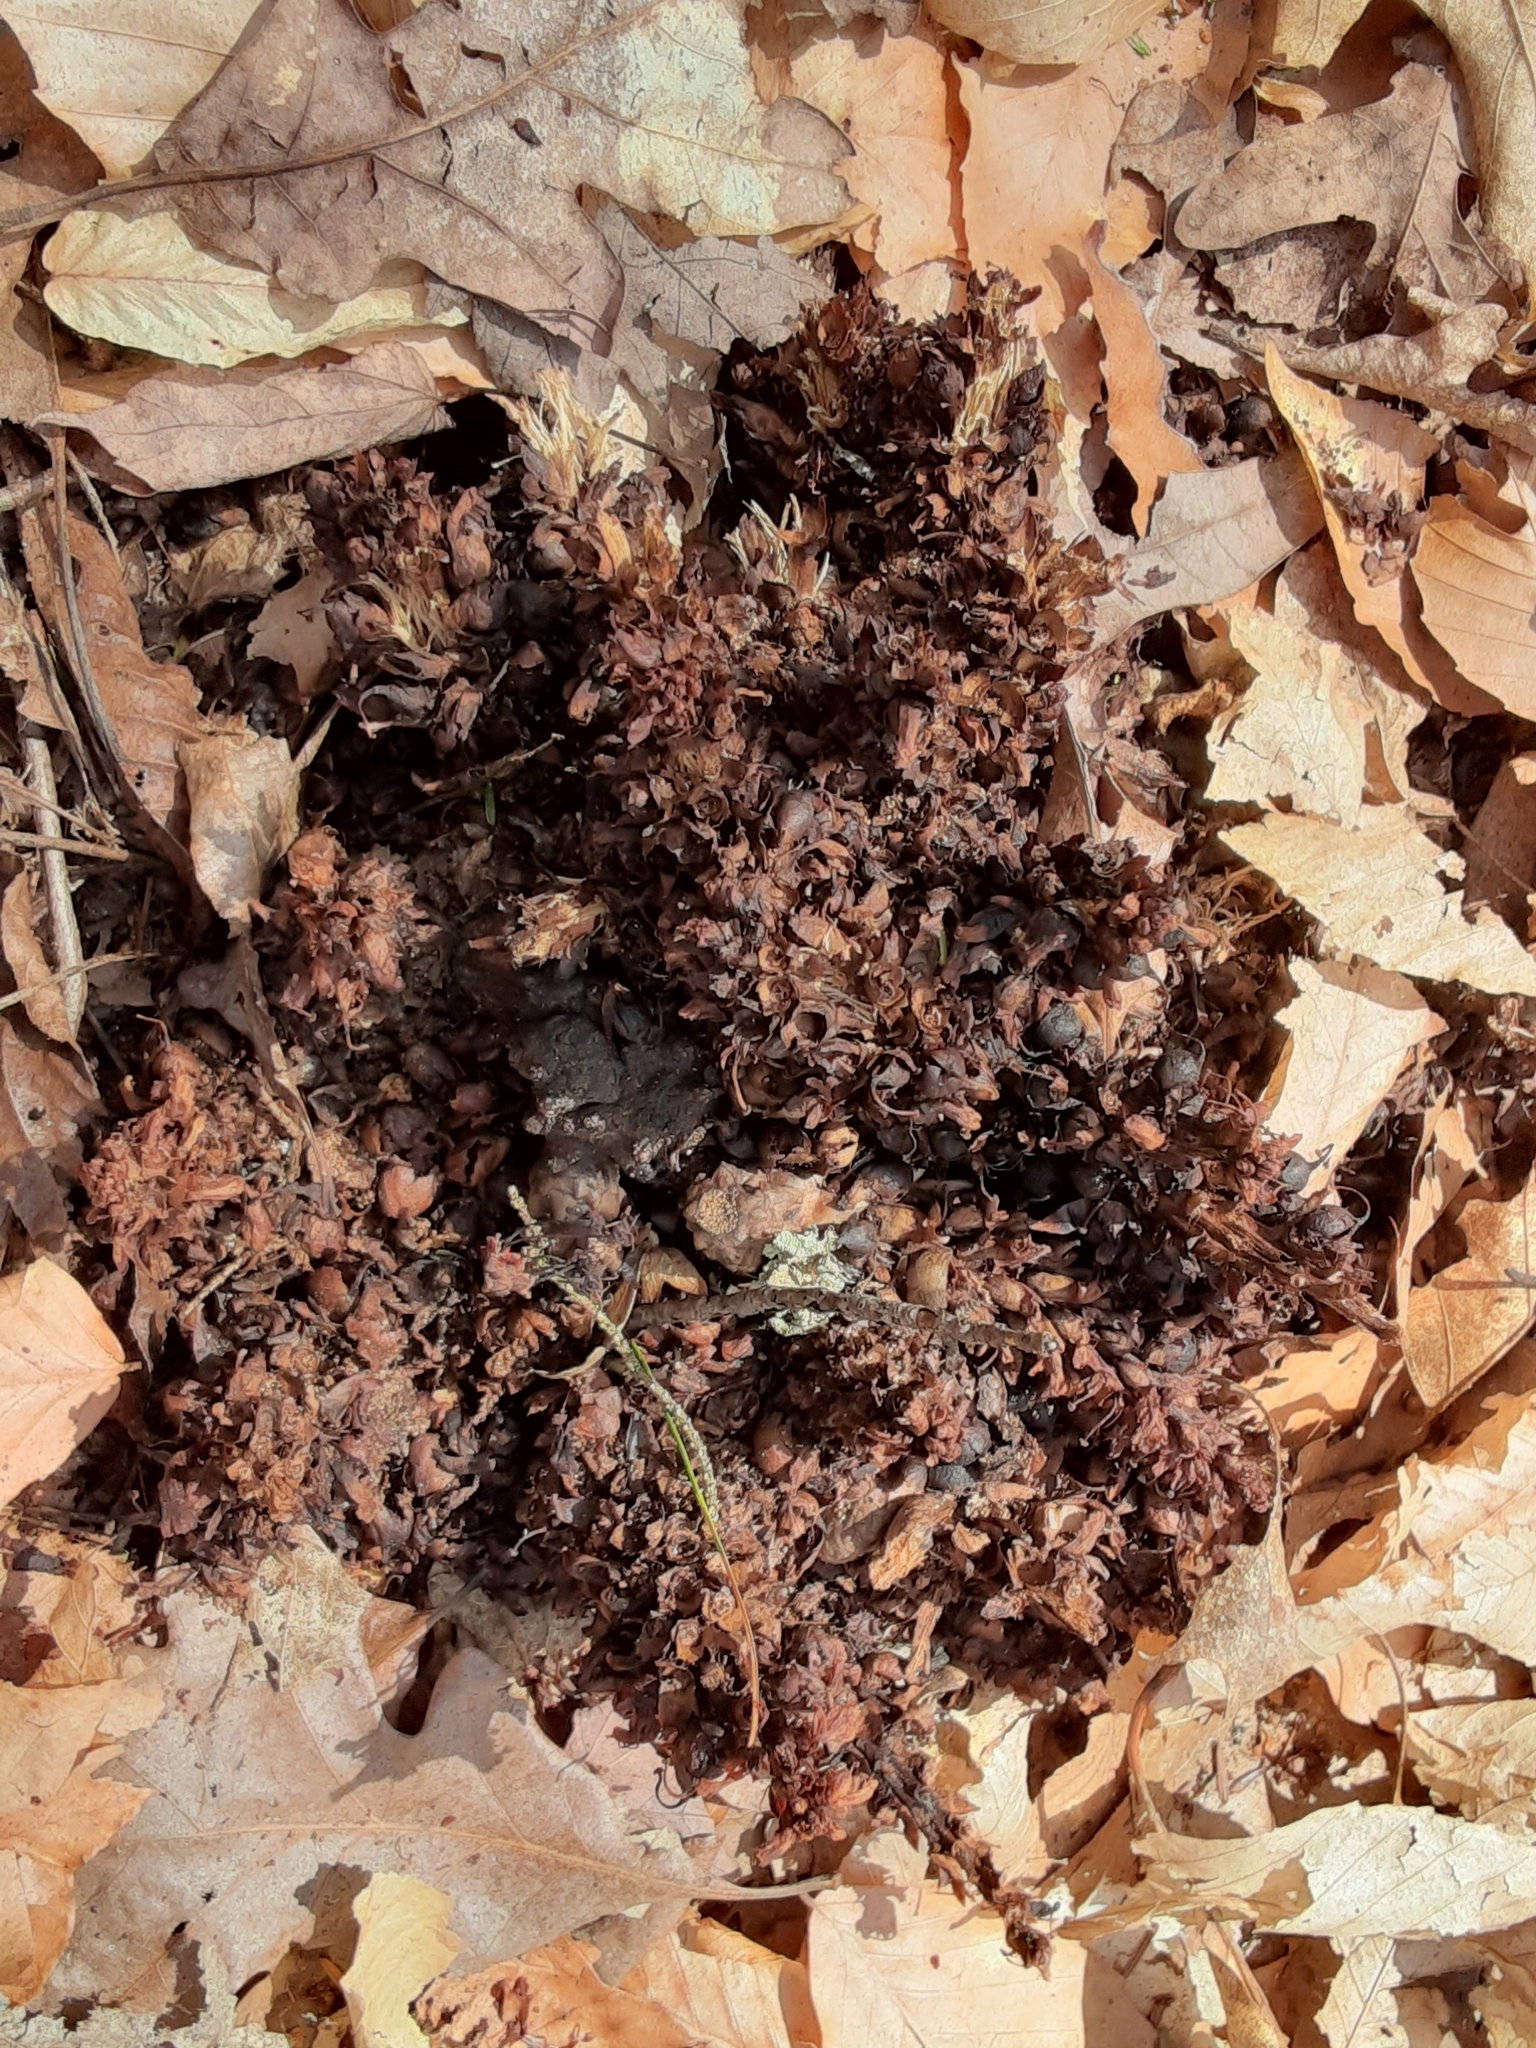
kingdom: Plantae
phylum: Tracheophyta
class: Magnoliopsida
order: Lamiales
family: Orobanchaceae
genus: Conopholis
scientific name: Conopholis americana
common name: American cancer-root
